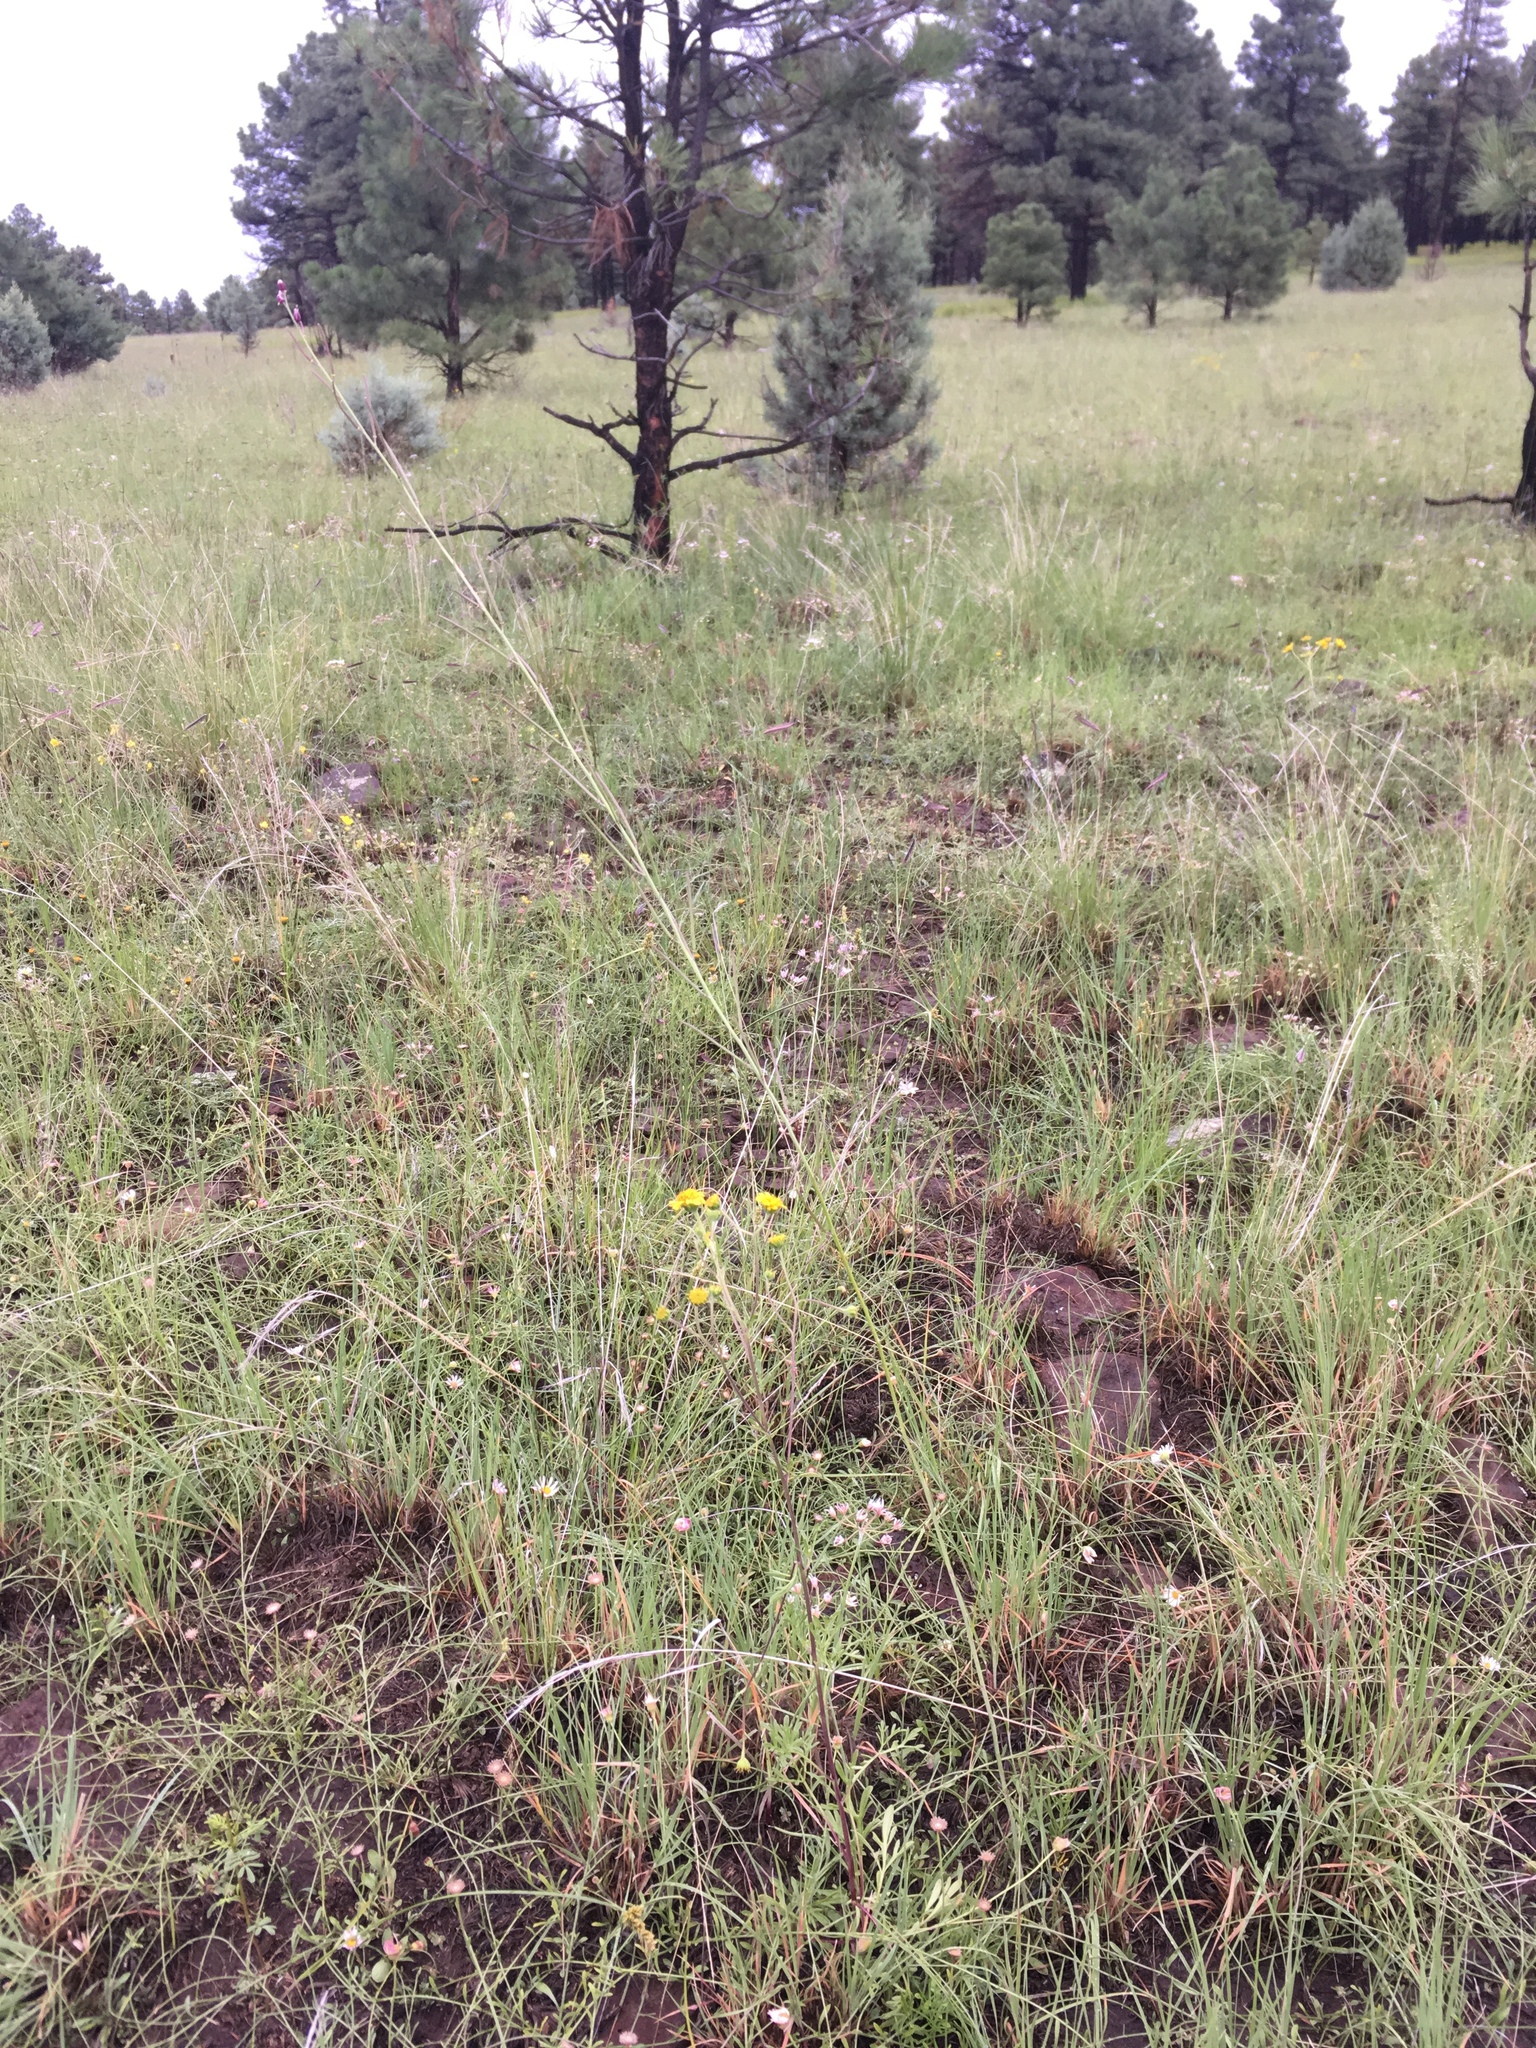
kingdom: Plantae
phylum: Tracheophyta
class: Magnoliopsida
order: Brassicales
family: Brassicaceae
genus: Pennellia
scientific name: Pennellia micrantha
